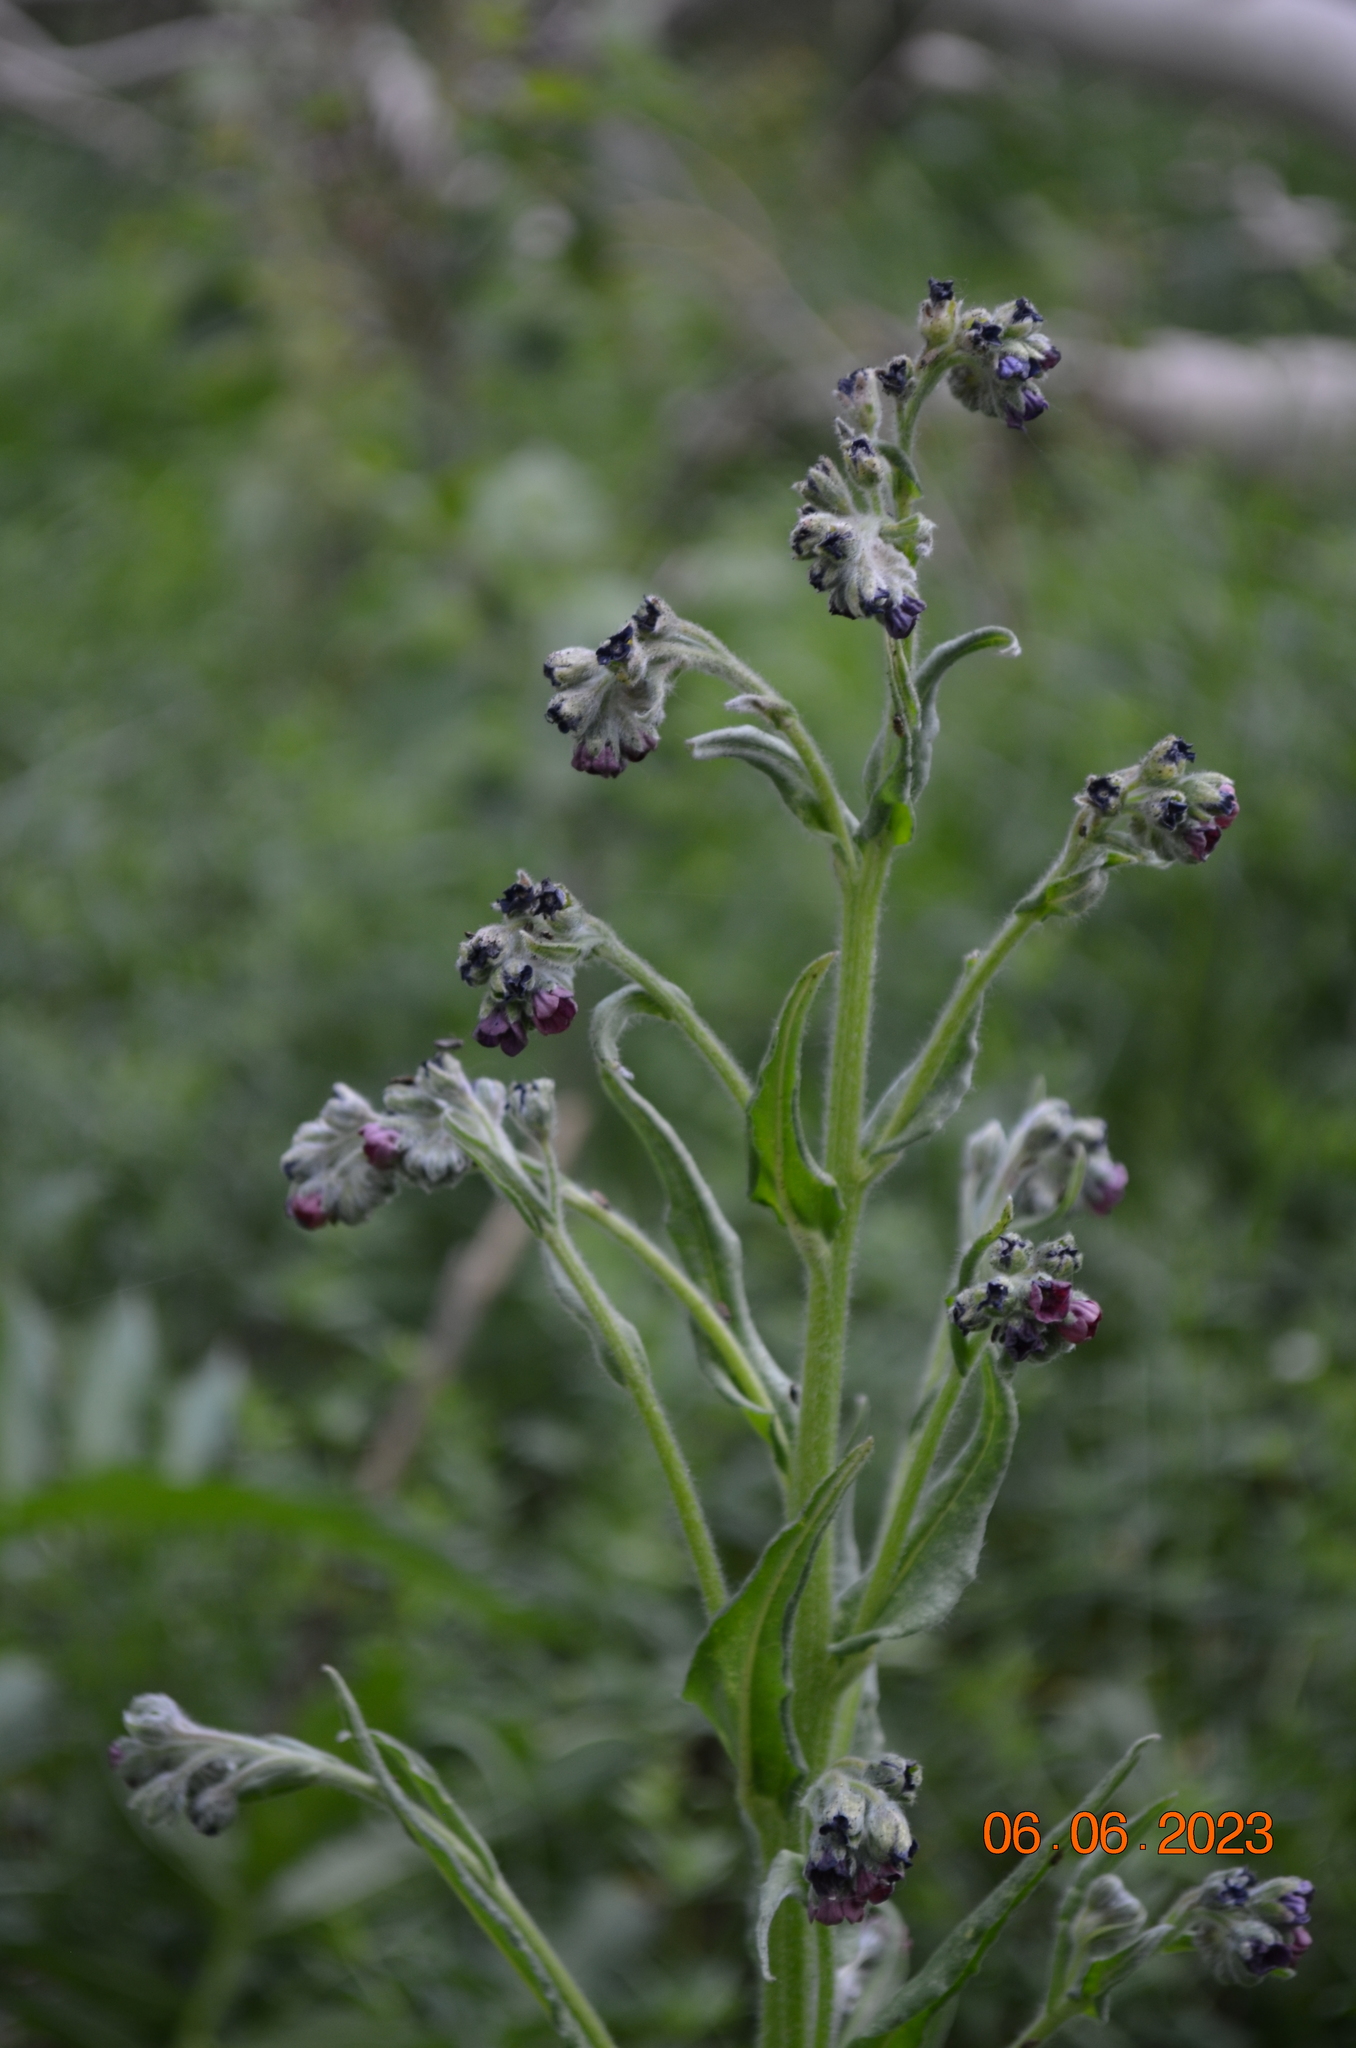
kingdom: Plantae
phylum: Tracheophyta
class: Magnoliopsida
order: Boraginales
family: Boraginaceae
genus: Cynoglossum
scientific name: Cynoglossum officinale
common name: Hound's-tongue
